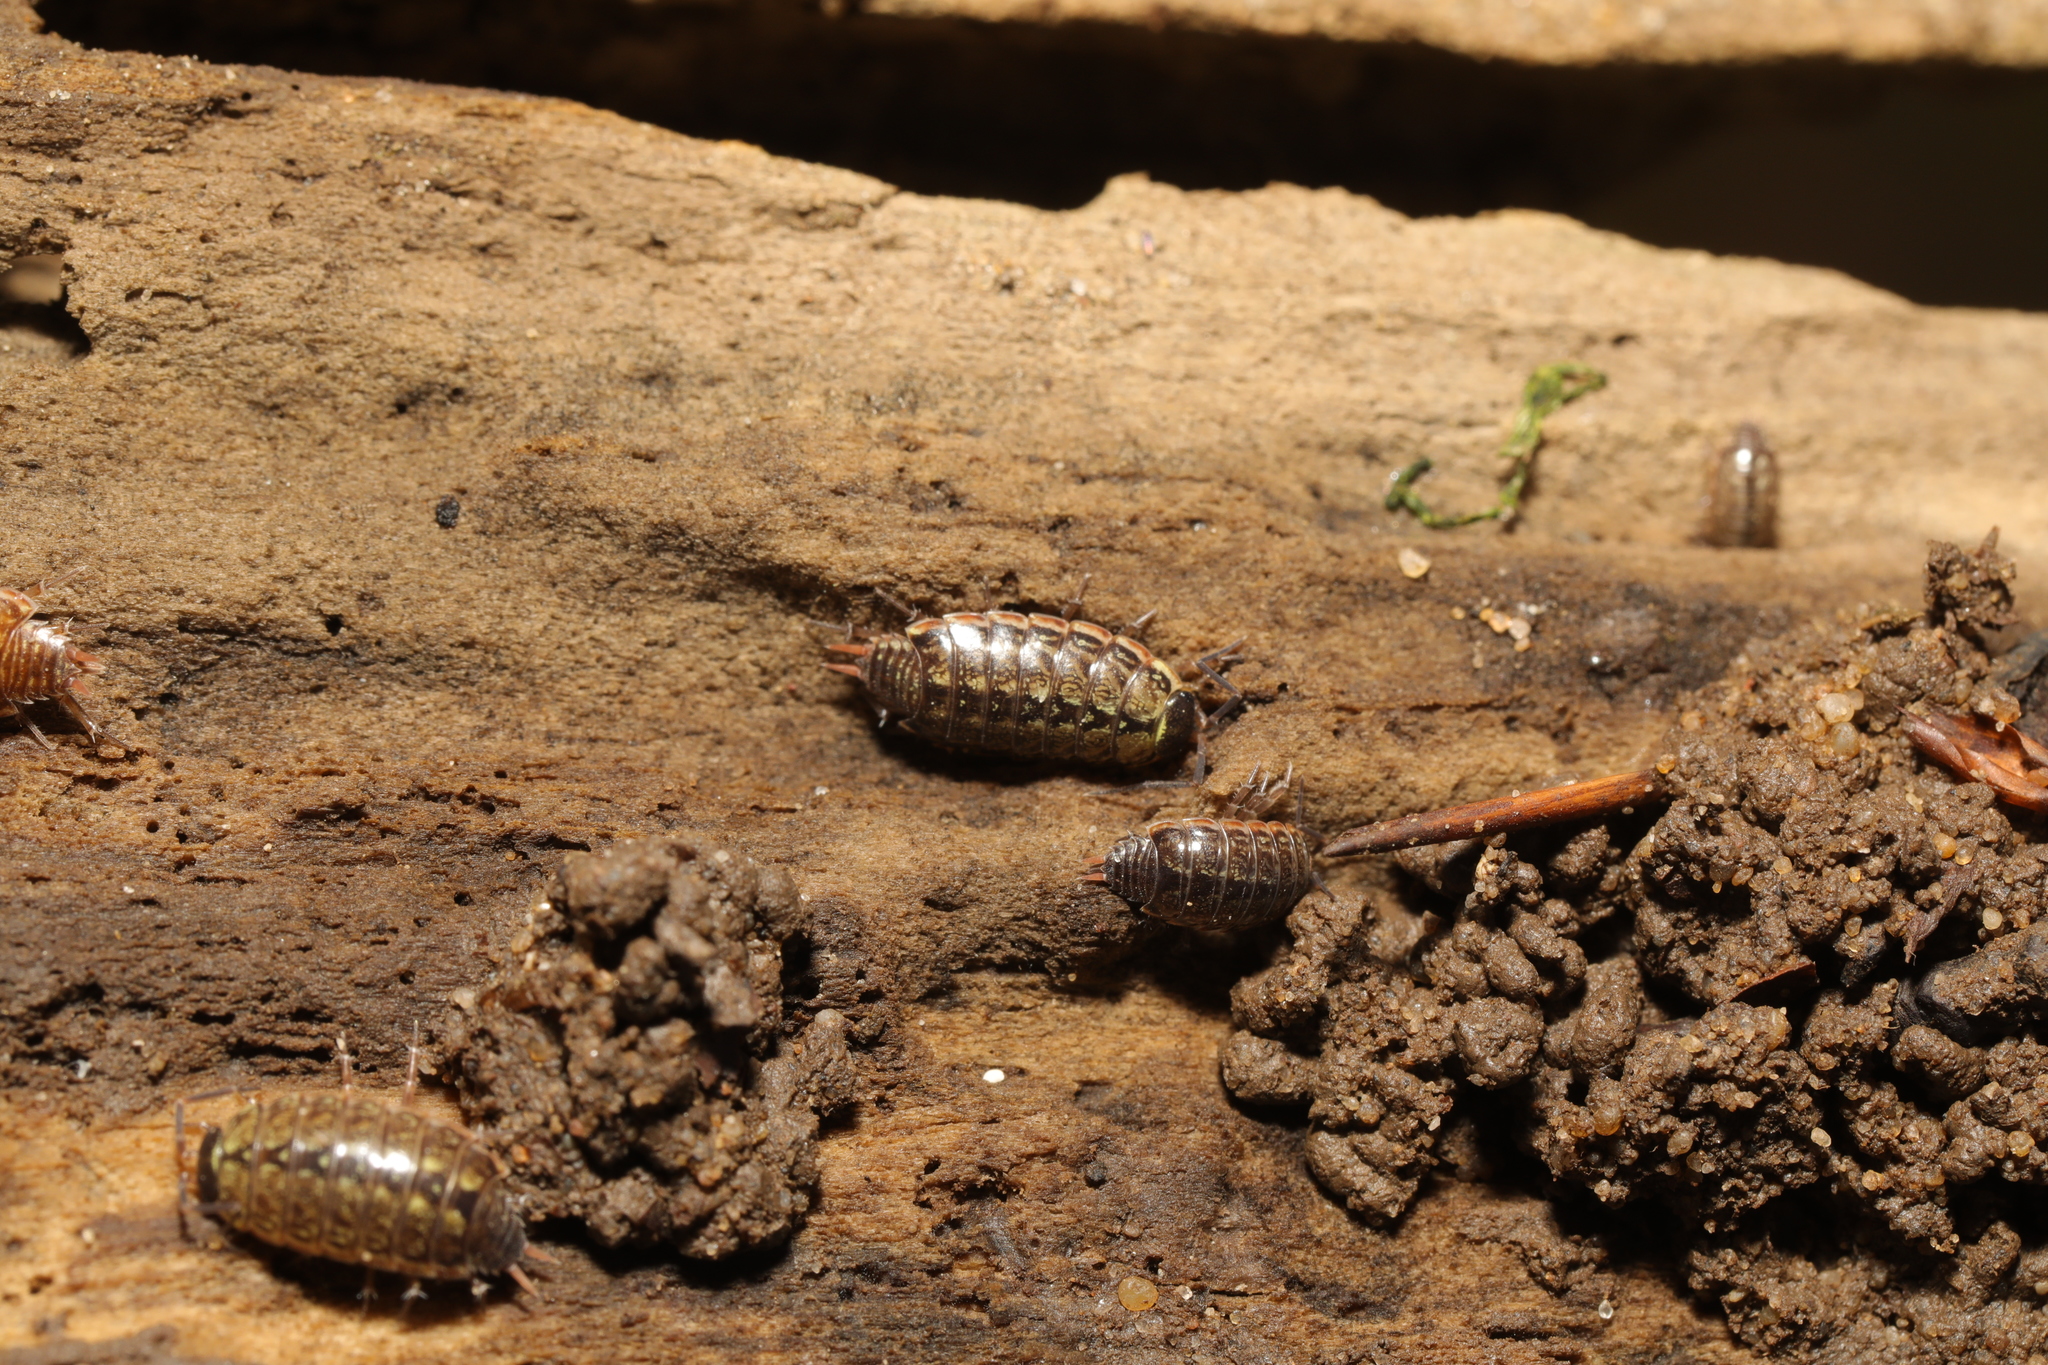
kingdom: Animalia
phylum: Arthropoda
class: Malacostraca
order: Isopoda
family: Philosciidae
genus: Philoscia
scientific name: Philoscia muscorum
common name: Common striped woodlouse
